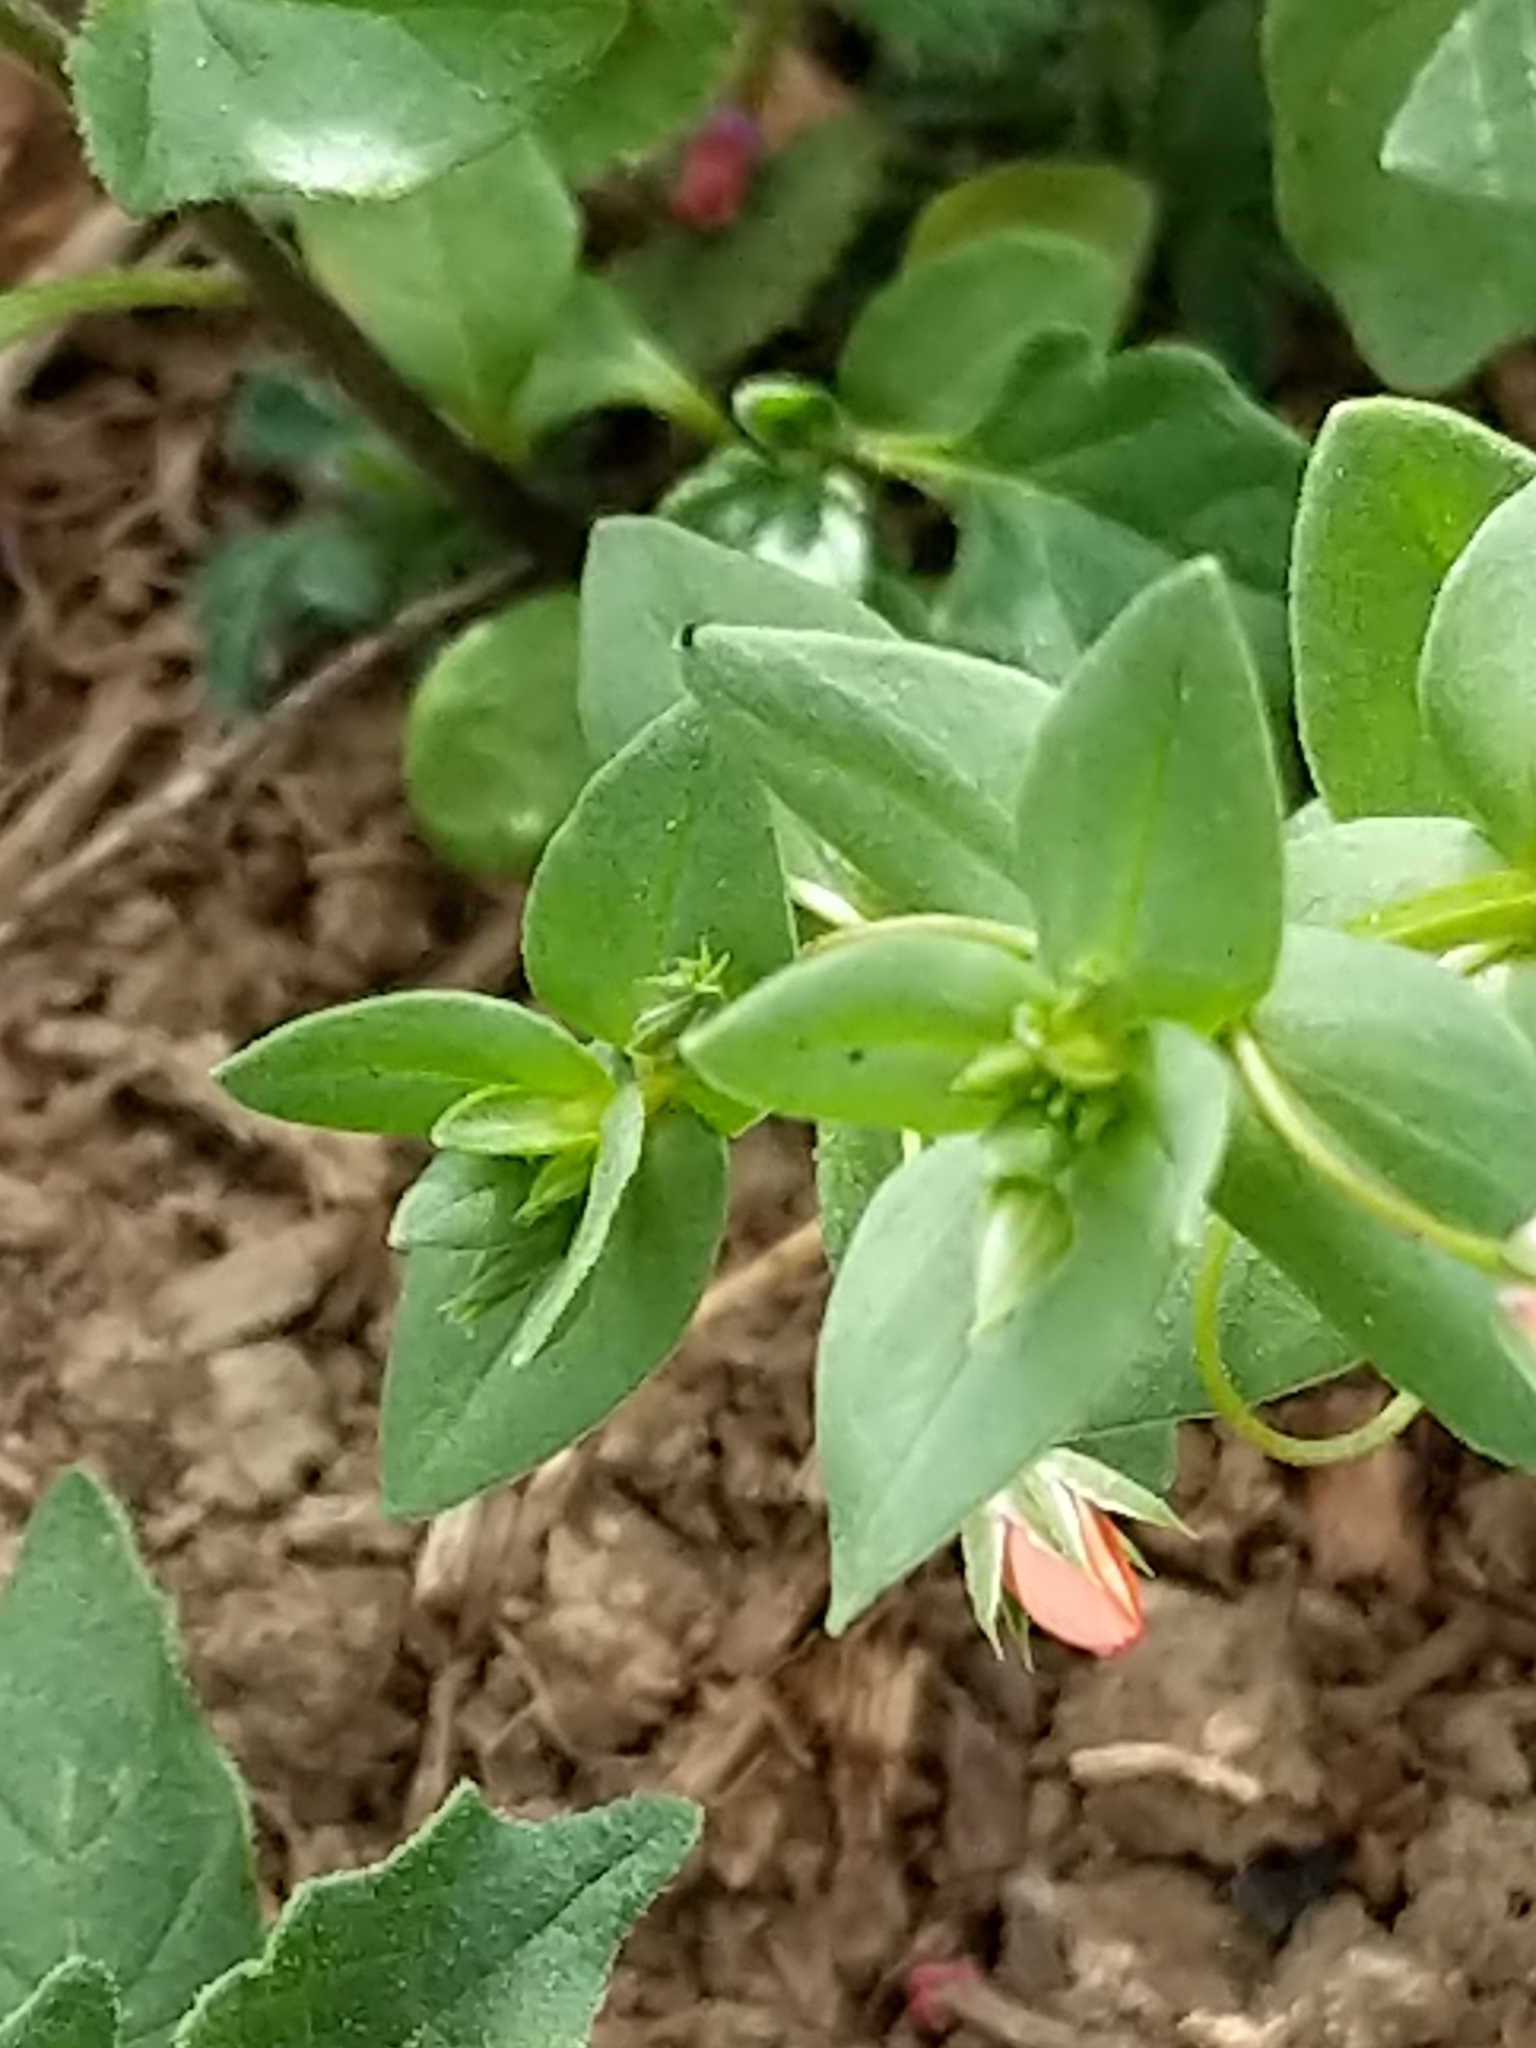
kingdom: Plantae
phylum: Tracheophyta
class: Magnoliopsida
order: Ericales
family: Primulaceae
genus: Lysimachia
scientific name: Lysimachia arvensis
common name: Scarlet pimpernel
